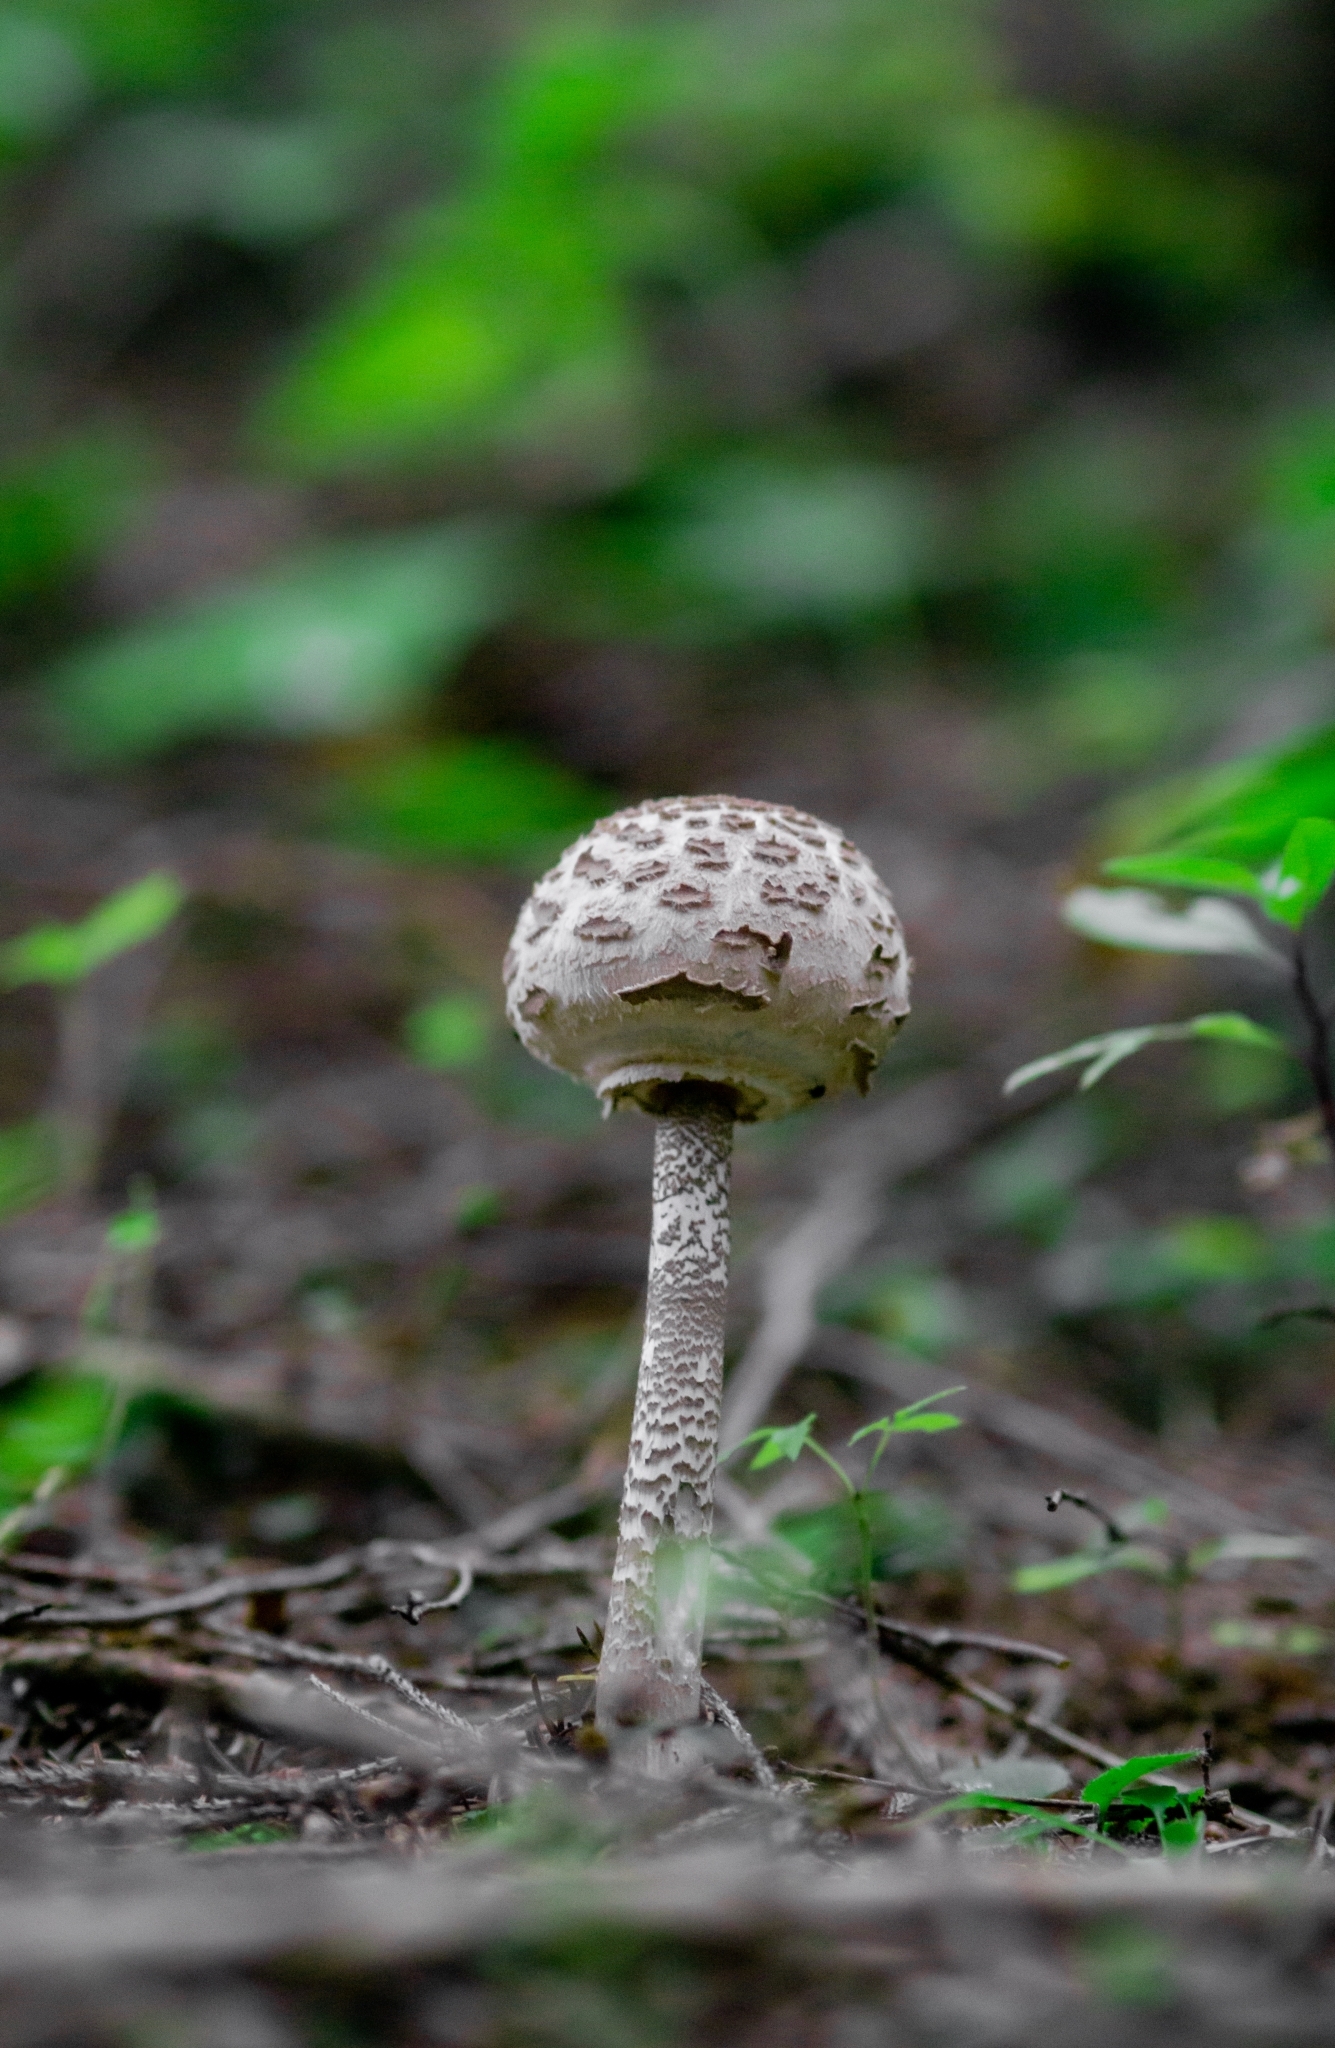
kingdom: Fungi
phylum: Basidiomycota
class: Agaricomycetes
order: Agaricales
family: Agaricaceae
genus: Macrolepiota
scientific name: Macrolepiota procera
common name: Parasol
